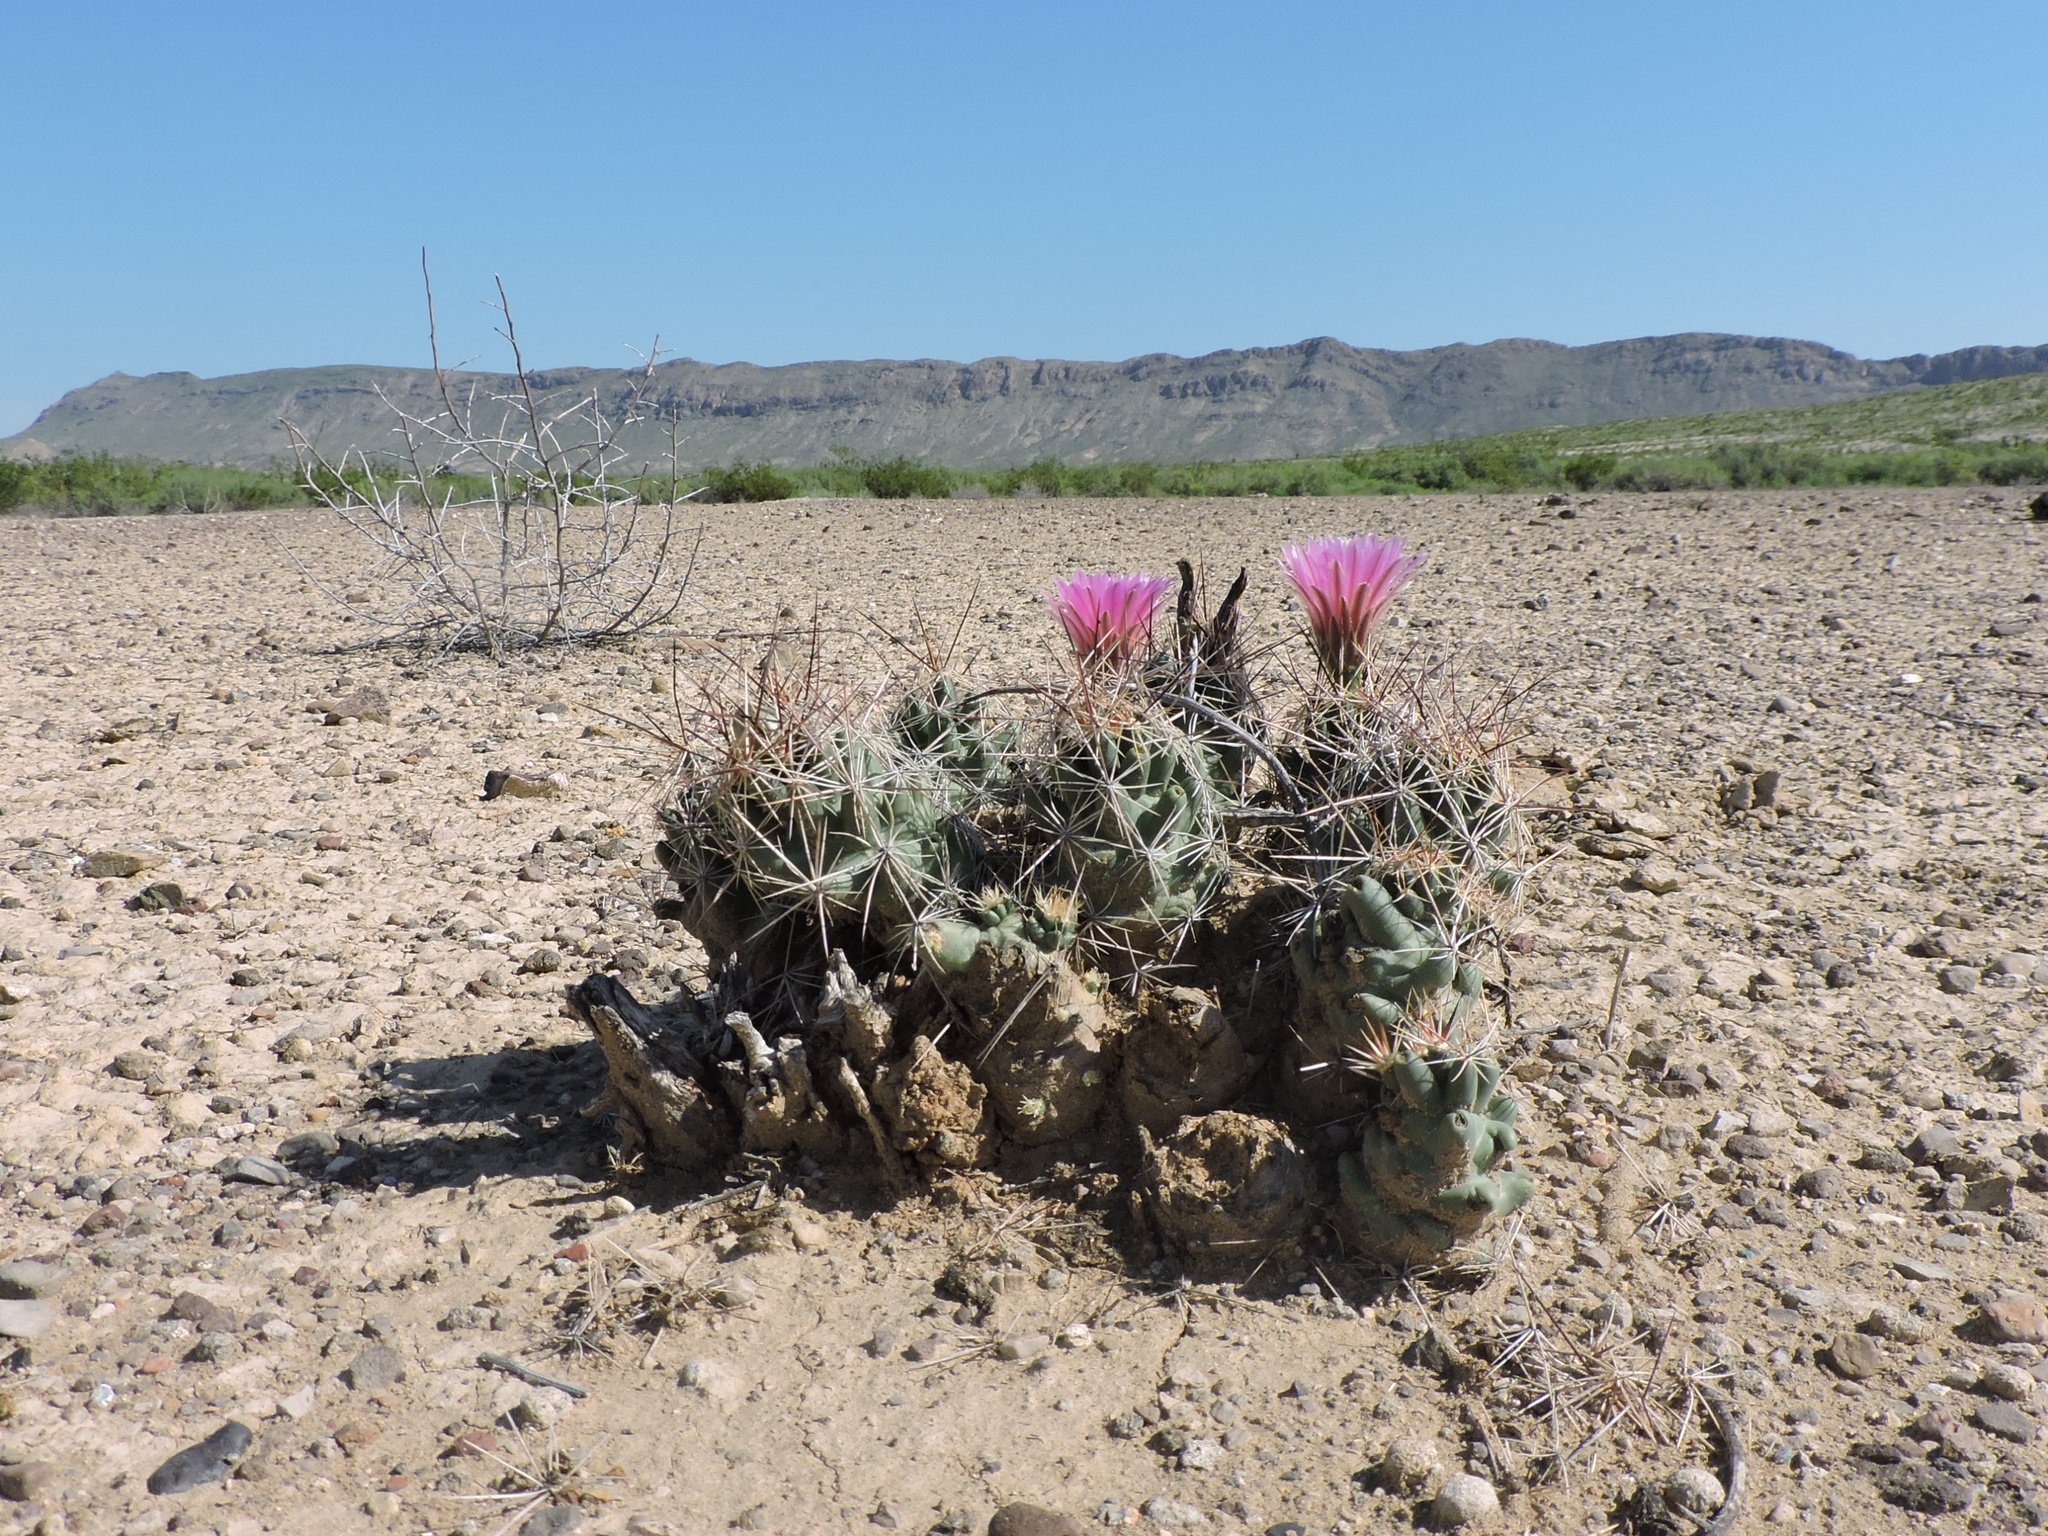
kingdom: Plantae
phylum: Tracheophyta
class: Magnoliopsida
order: Caryophyllales
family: Cactaceae
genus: Coryphantha
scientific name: Coryphantha macromeris
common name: Nipple beehive cactus
